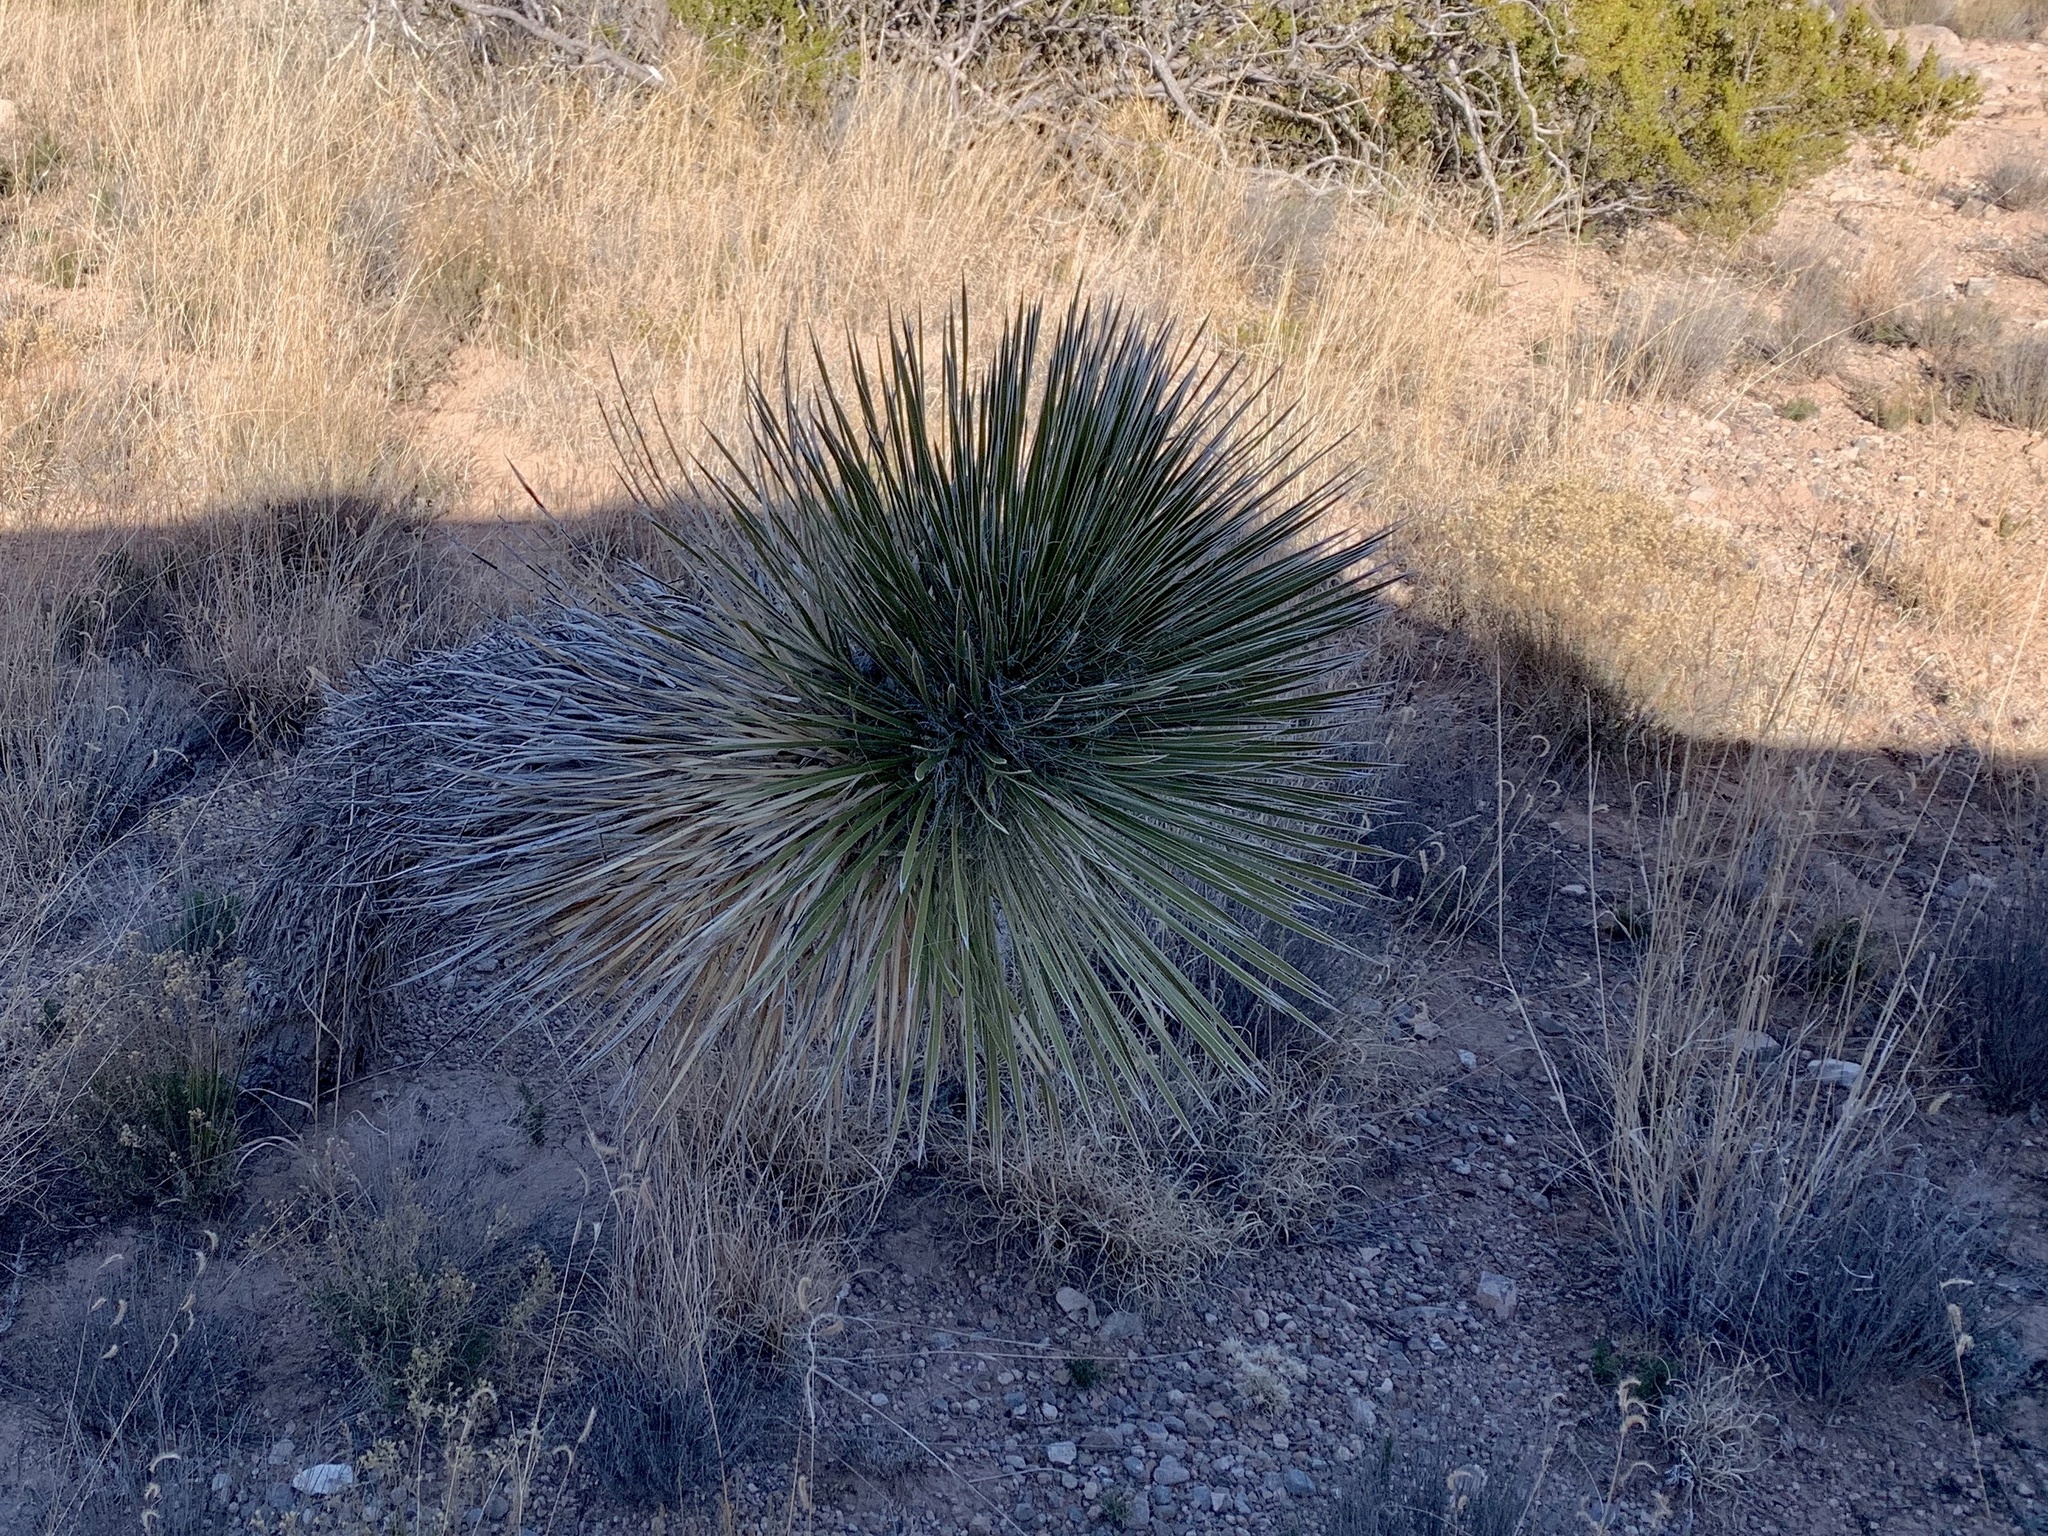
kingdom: Plantae
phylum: Tracheophyta
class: Liliopsida
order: Asparagales
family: Asparagaceae
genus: Yucca
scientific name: Yucca elata
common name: Palmella
